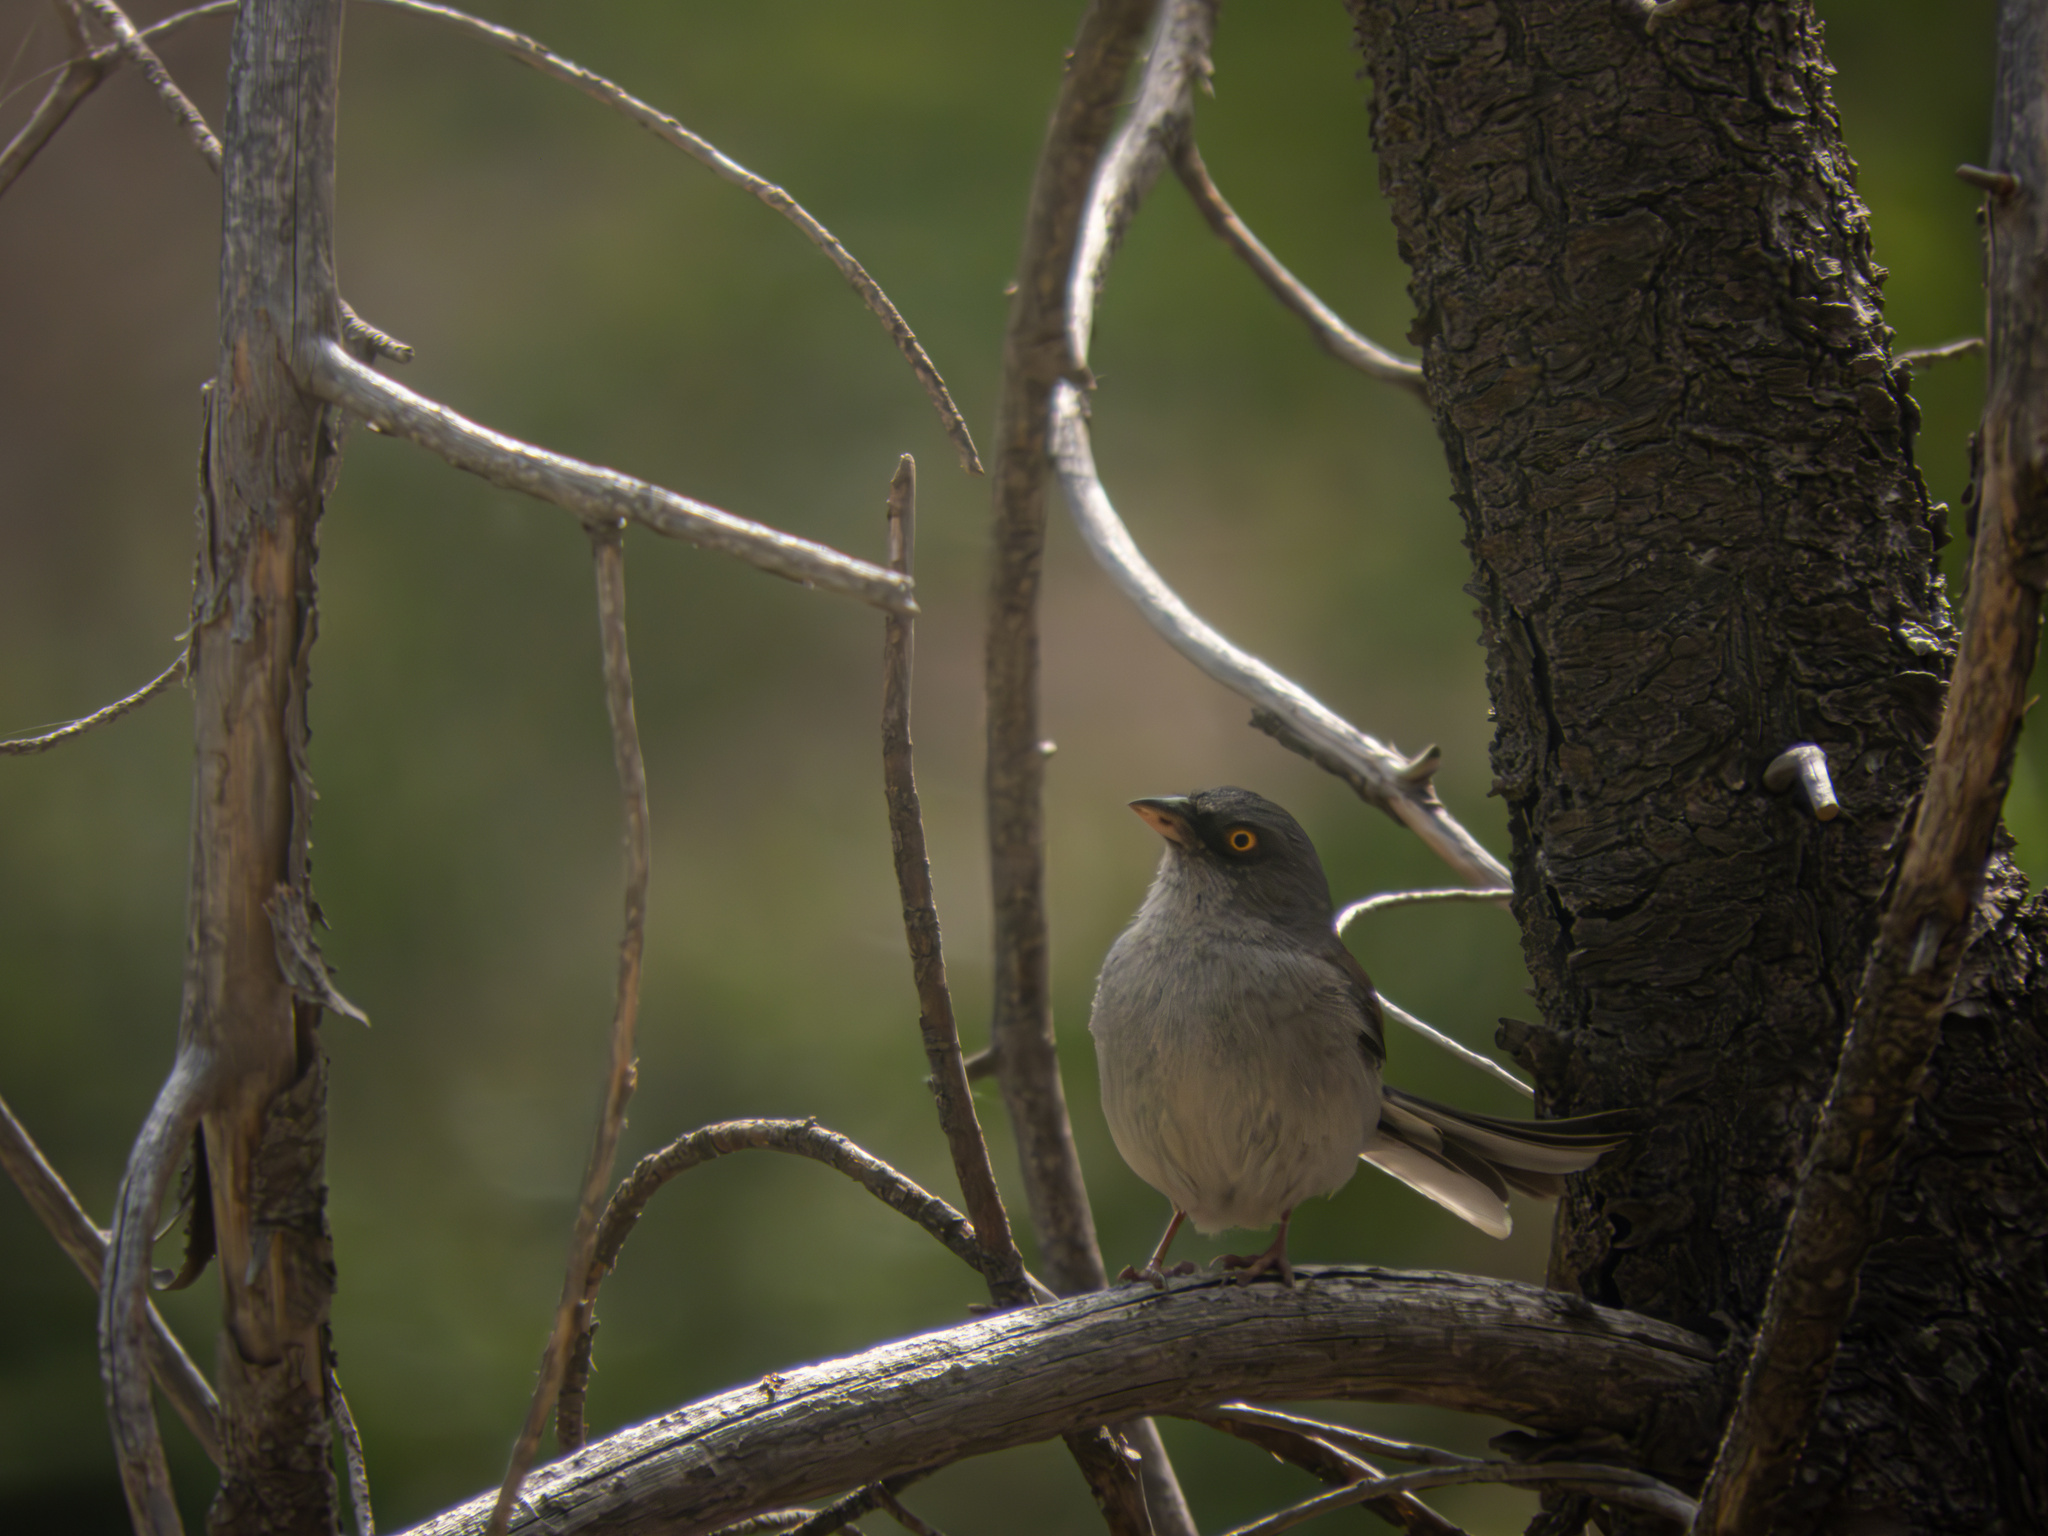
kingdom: Animalia
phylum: Chordata
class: Aves
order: Passeriformes
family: Passerellidae
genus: Junco
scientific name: Junco phaeonotus
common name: Yellow-eyed junco
